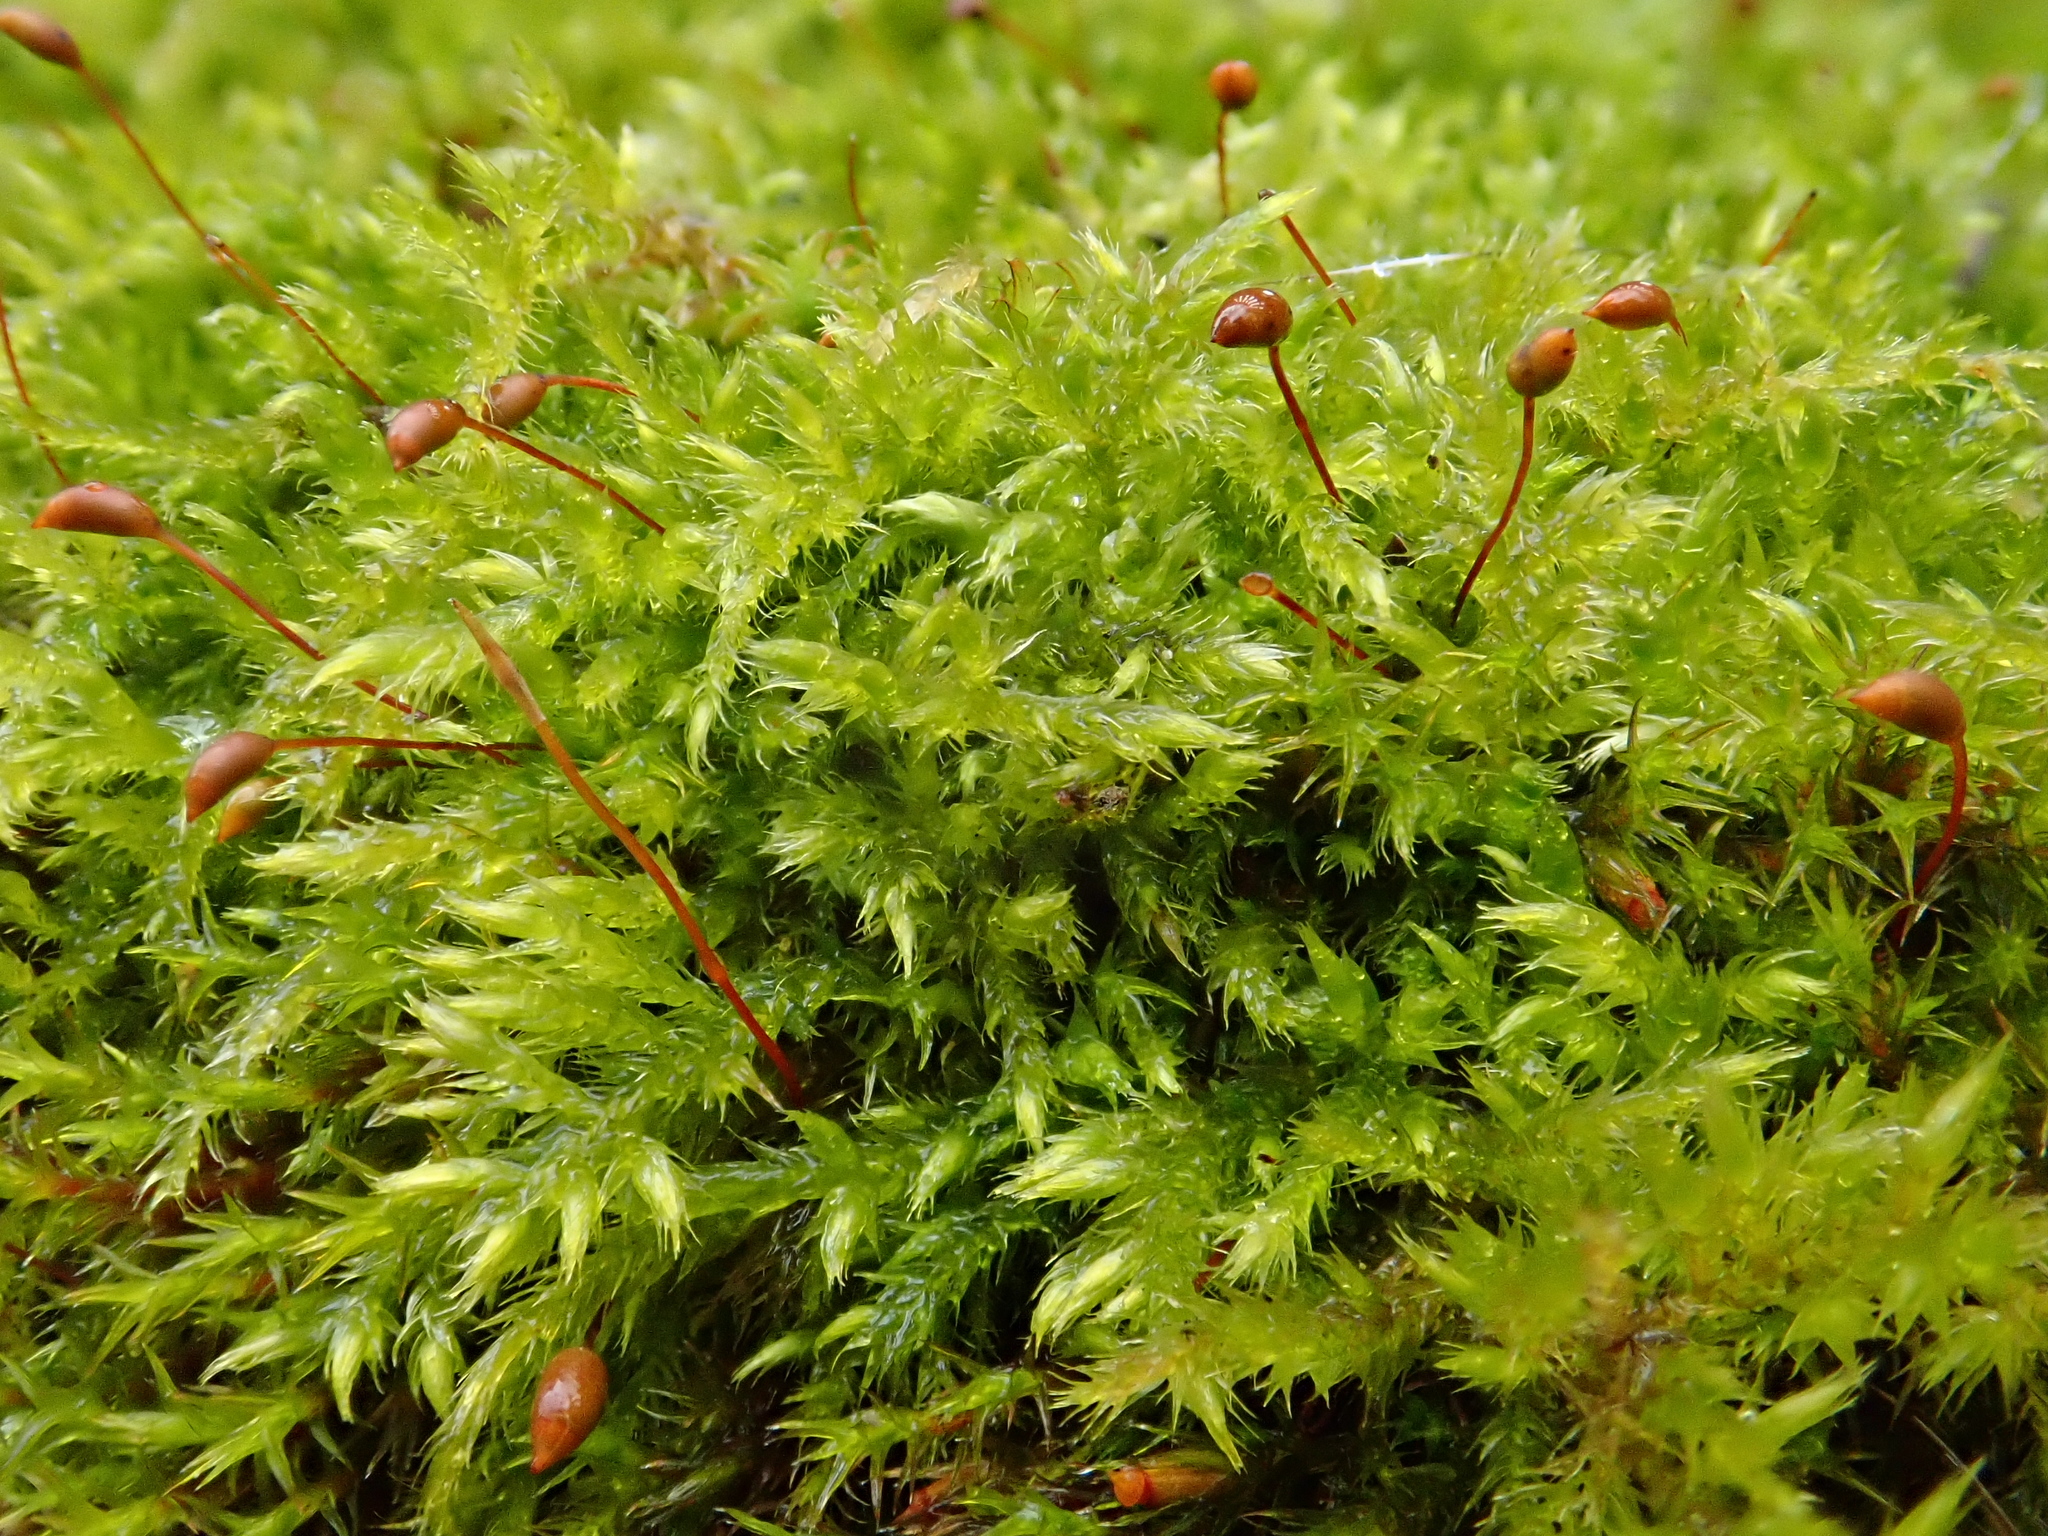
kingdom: Plantae
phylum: Bryophyta
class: Bryopsida
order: Hypnales
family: Brachytheciaceae
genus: Sciuro-hypnum
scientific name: Sciuro-hypnum populeum
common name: Matted feather-moss
